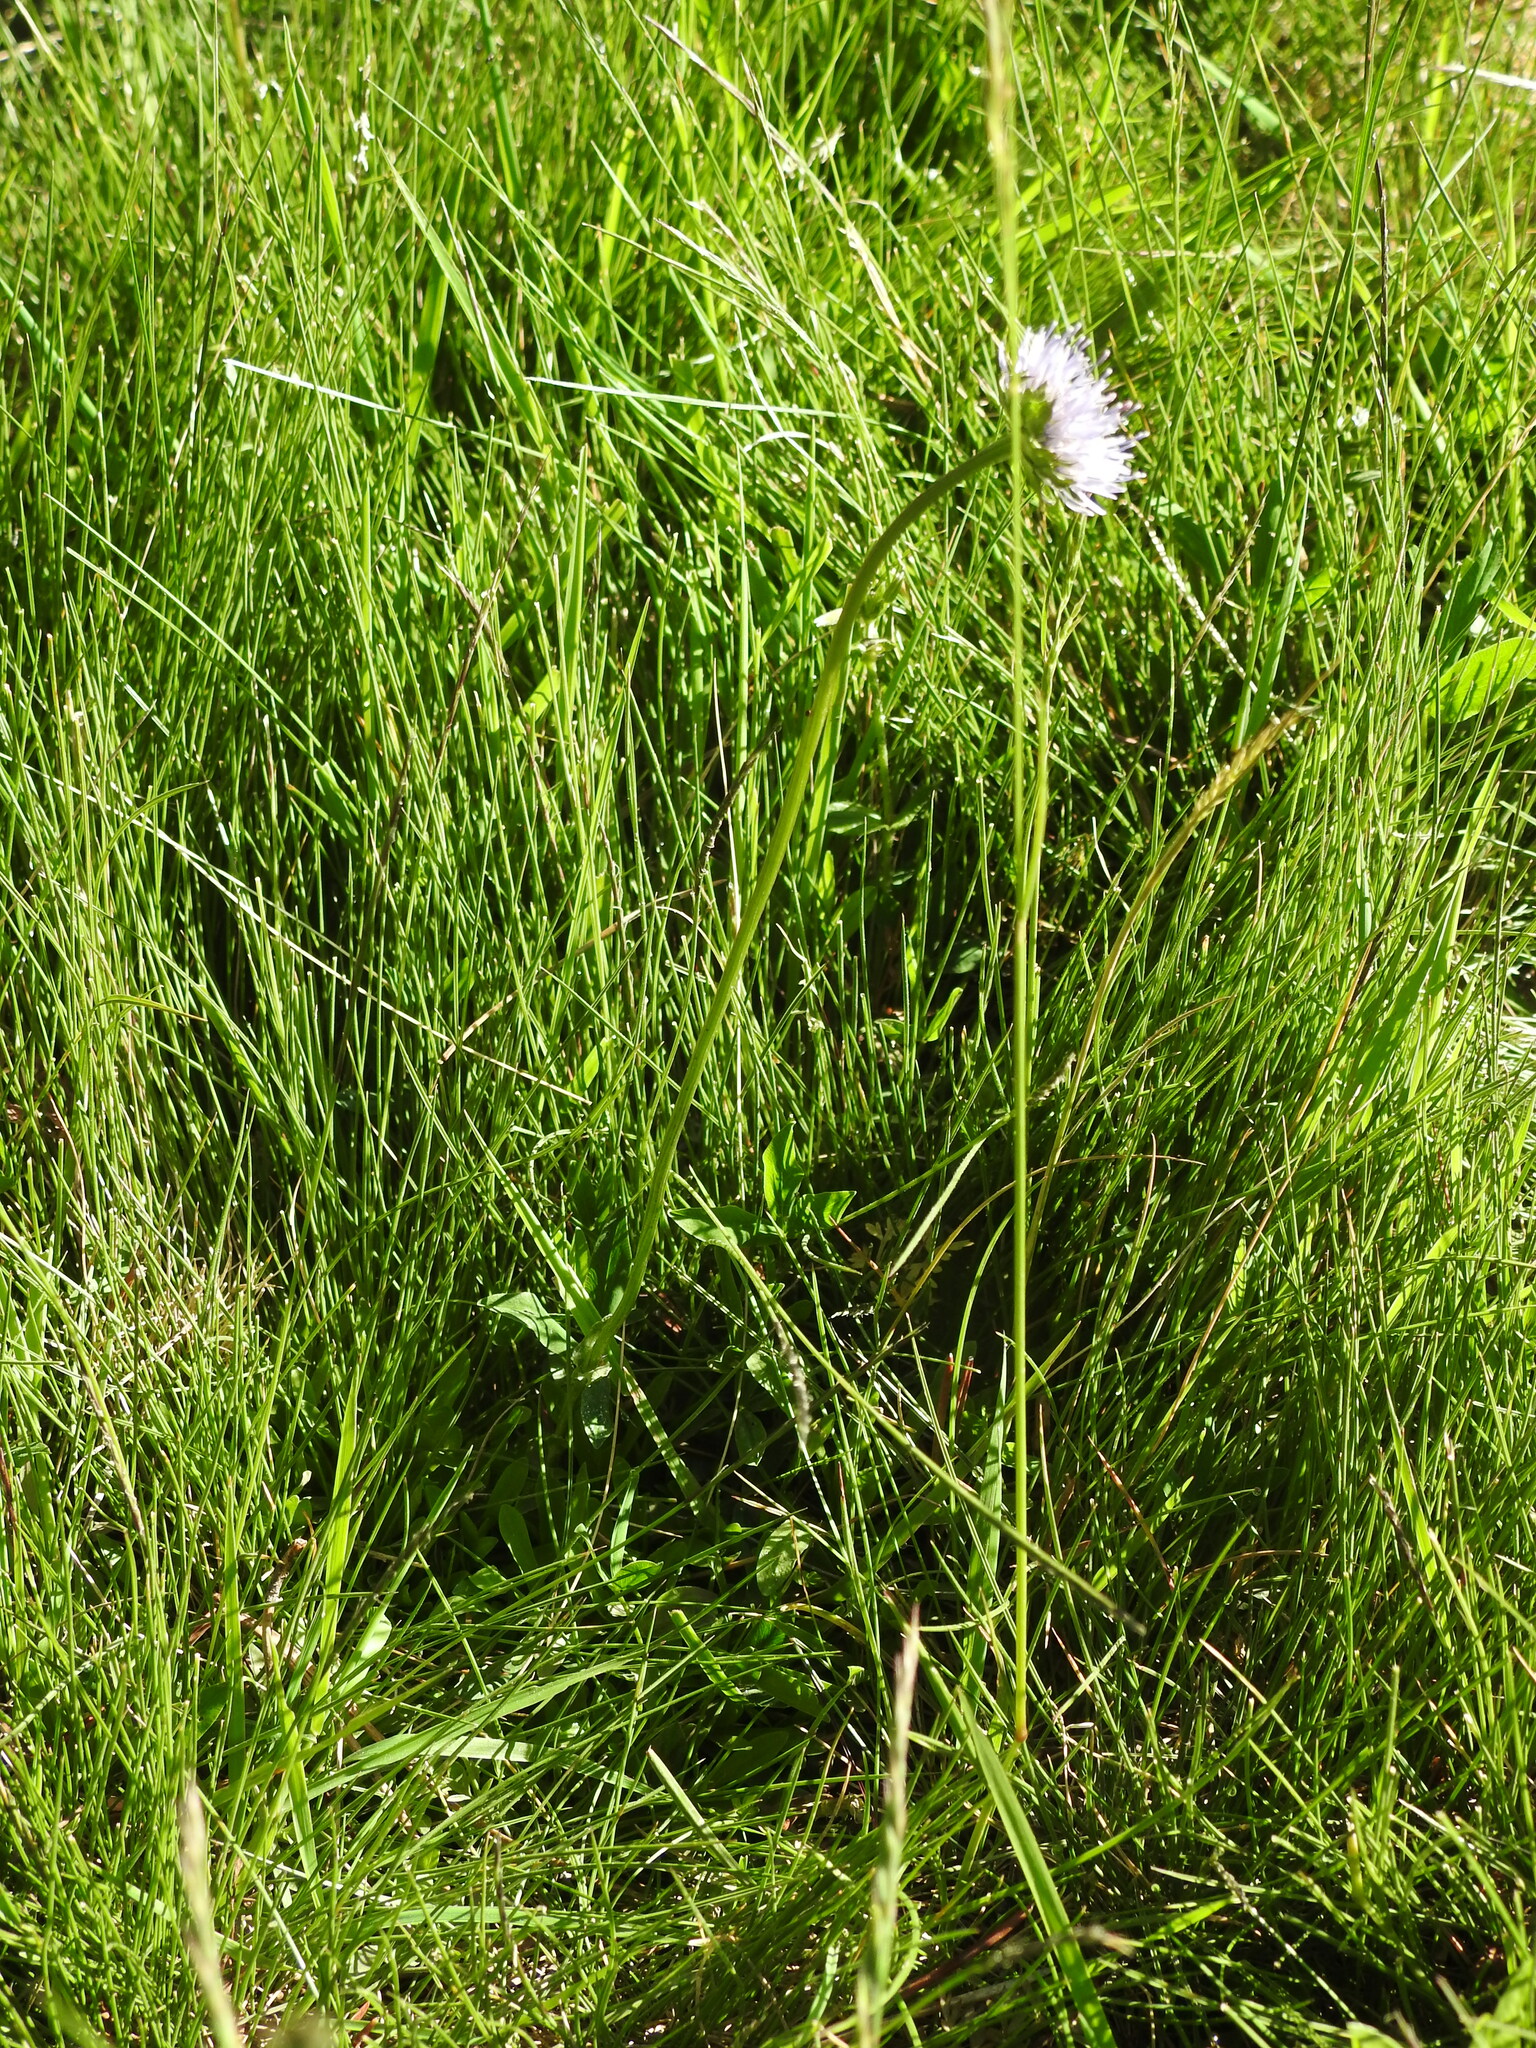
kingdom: Plantae
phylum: Tracheophyta
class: Magnoliopsida
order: Asterales
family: Campanulaceae
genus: Jasione
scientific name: Jasione laevis
